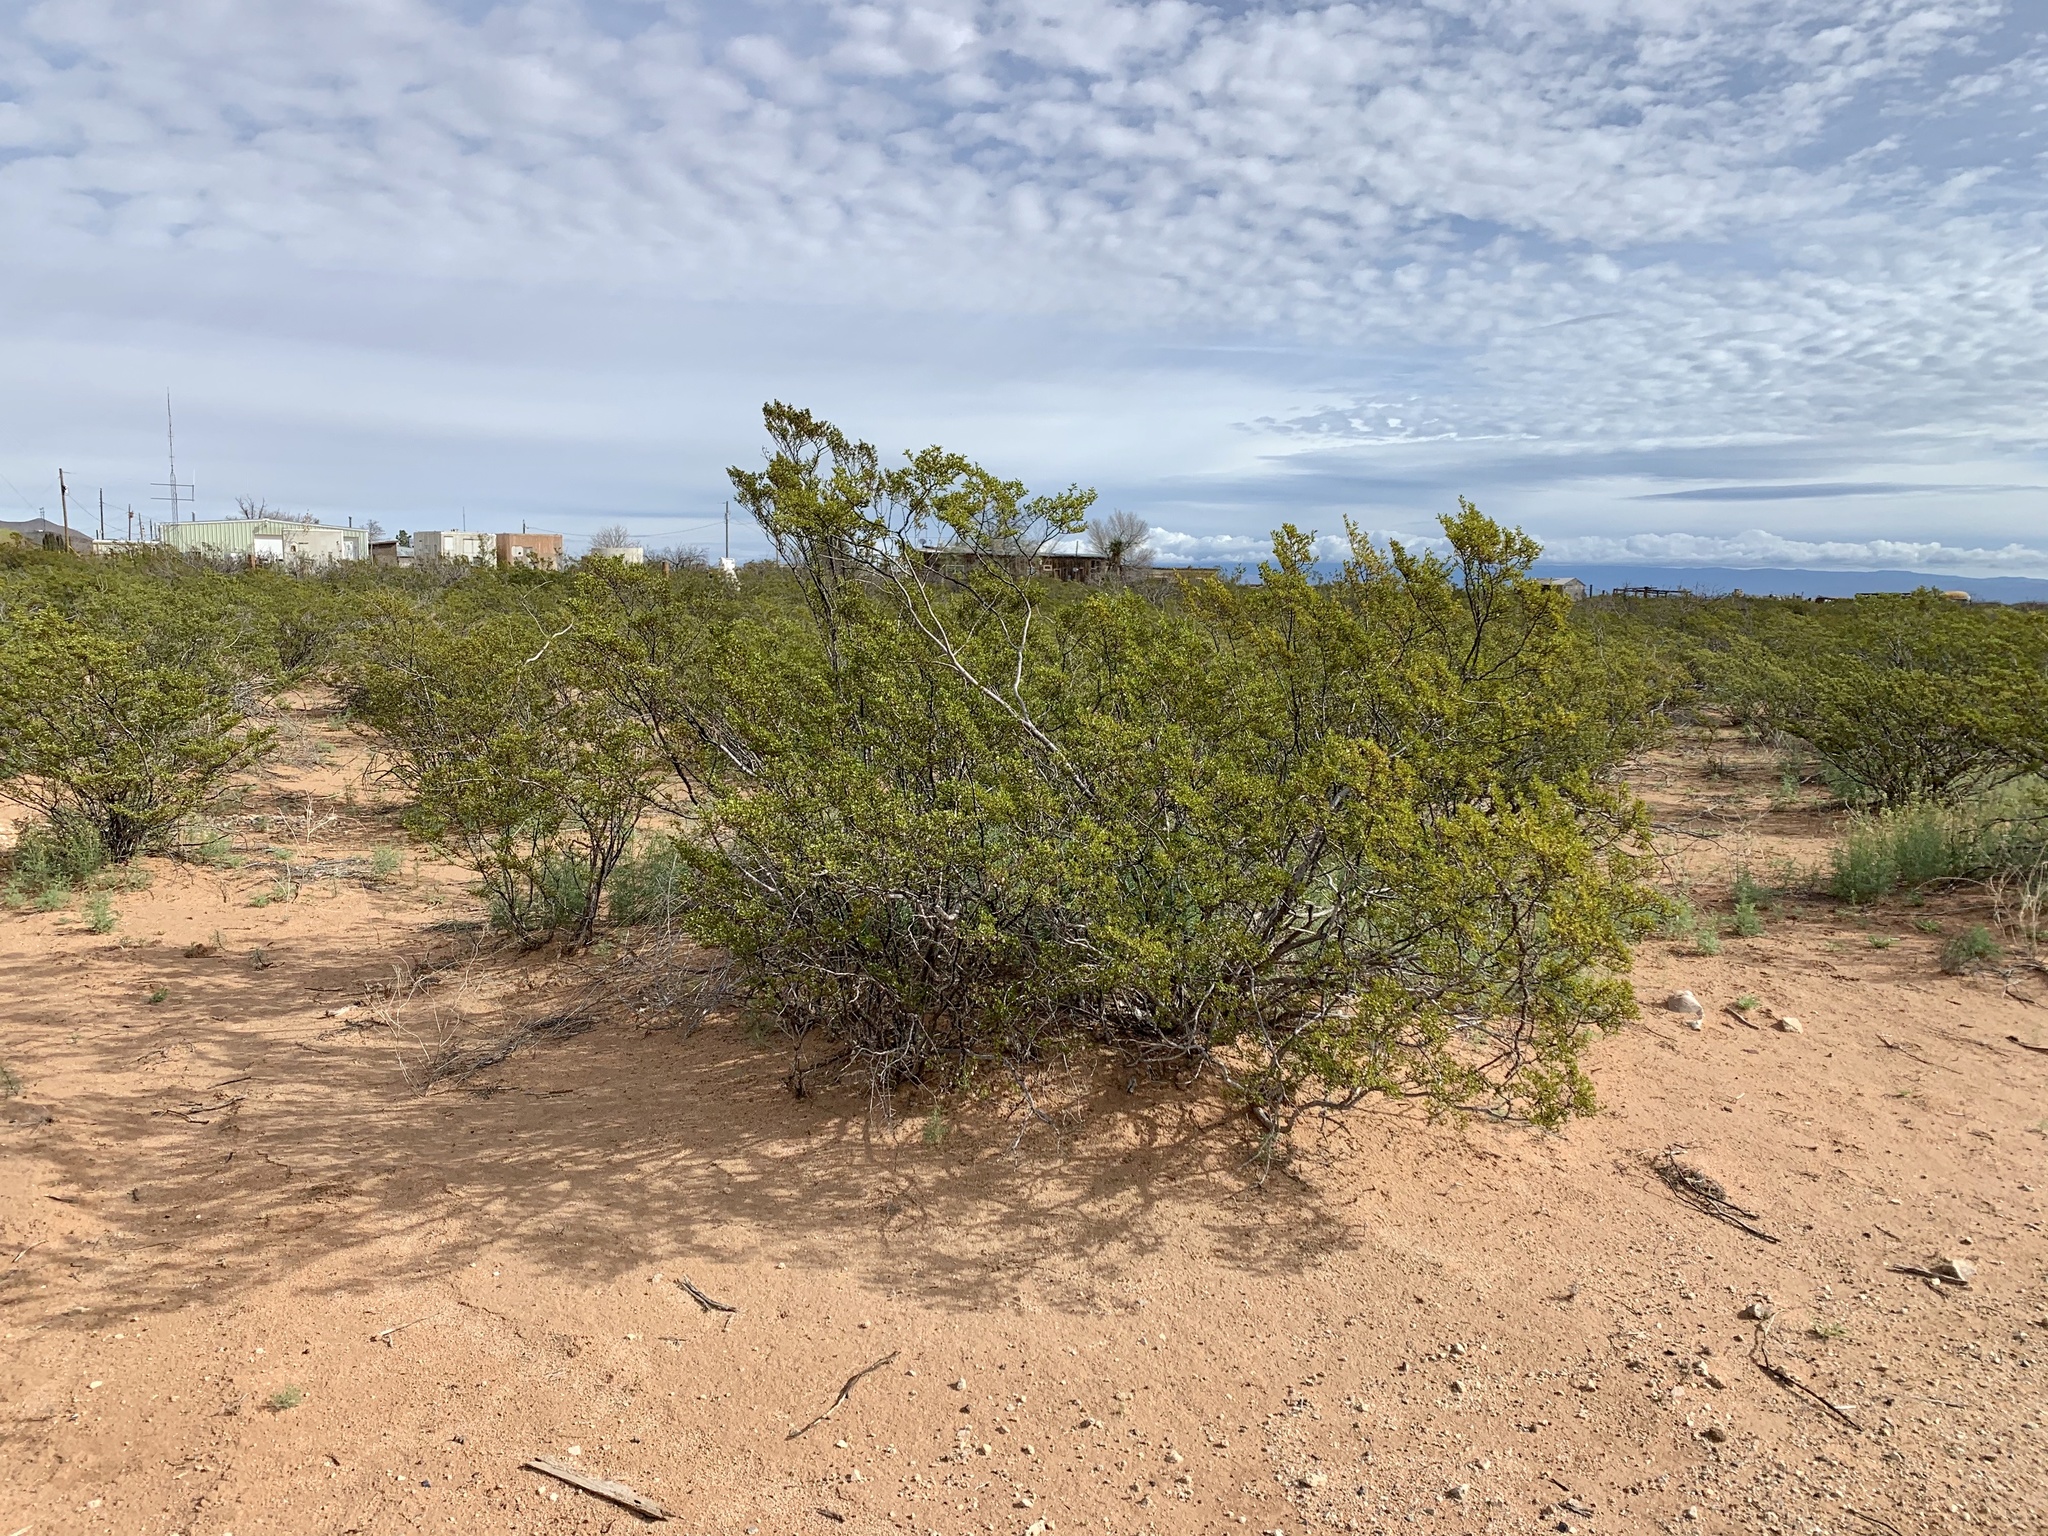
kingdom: Plantae
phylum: Tracheophyta
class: Magnoliopsida
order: Zygophyllales
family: Zygophyllaceae
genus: Larrea
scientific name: Larrea tridentata
